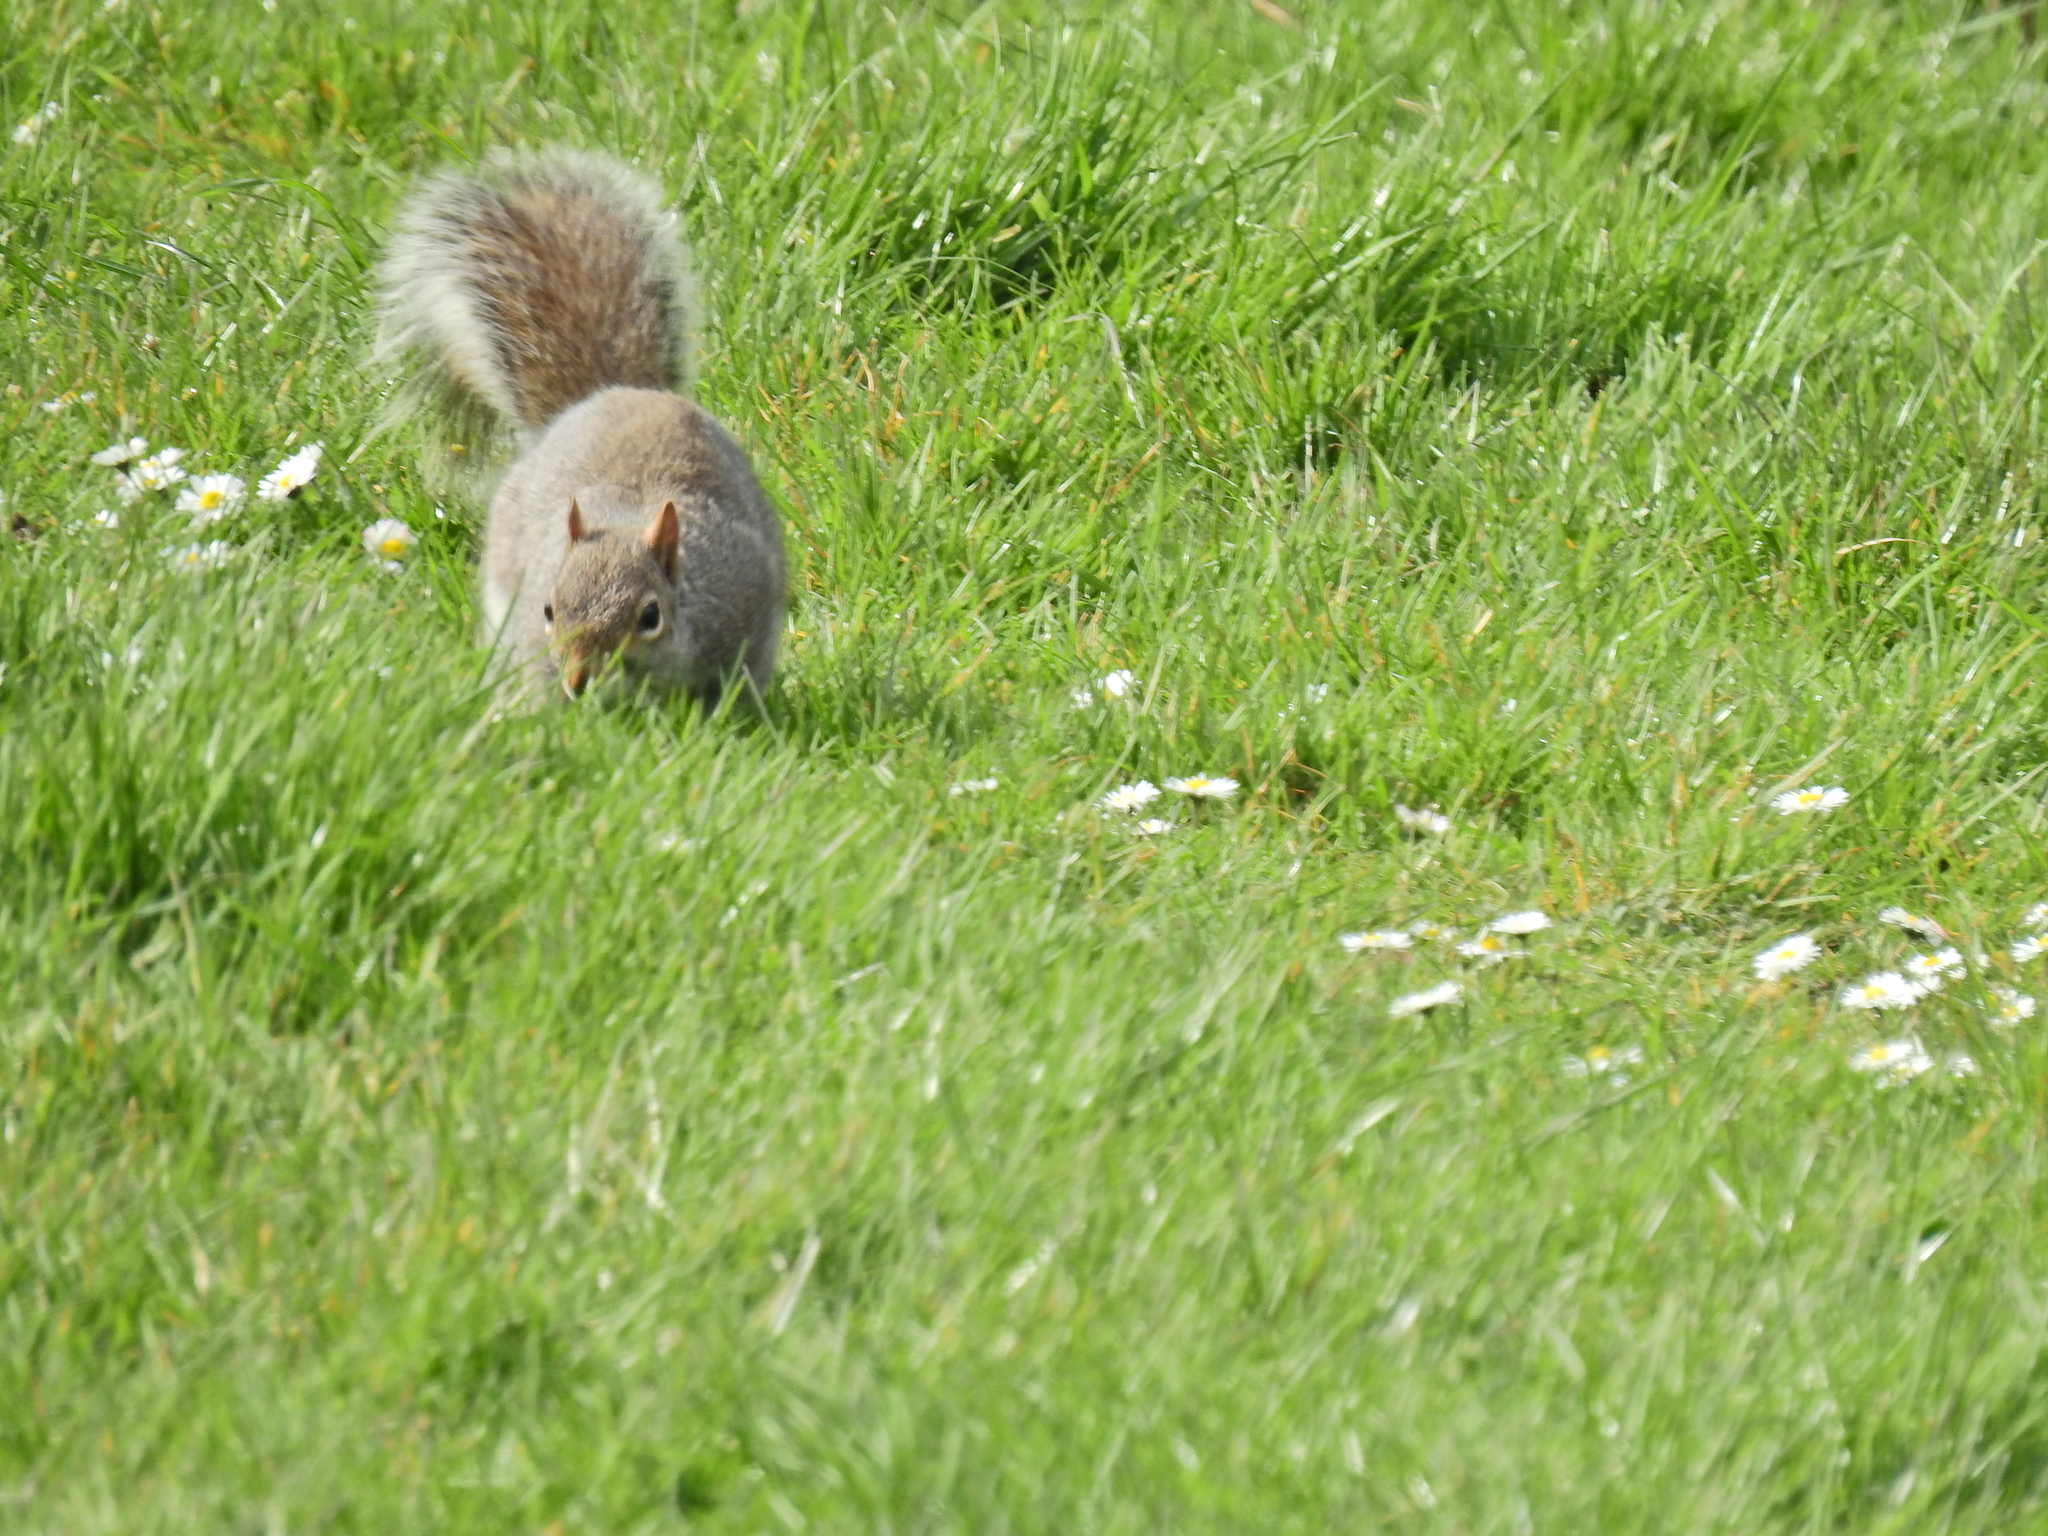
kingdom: Animalia
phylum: Chordata
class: Mammalia
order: Rodentia
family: Sciuridae
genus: Sciurus
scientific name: Sciurus carolinensis
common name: Eastern gray squirrel
